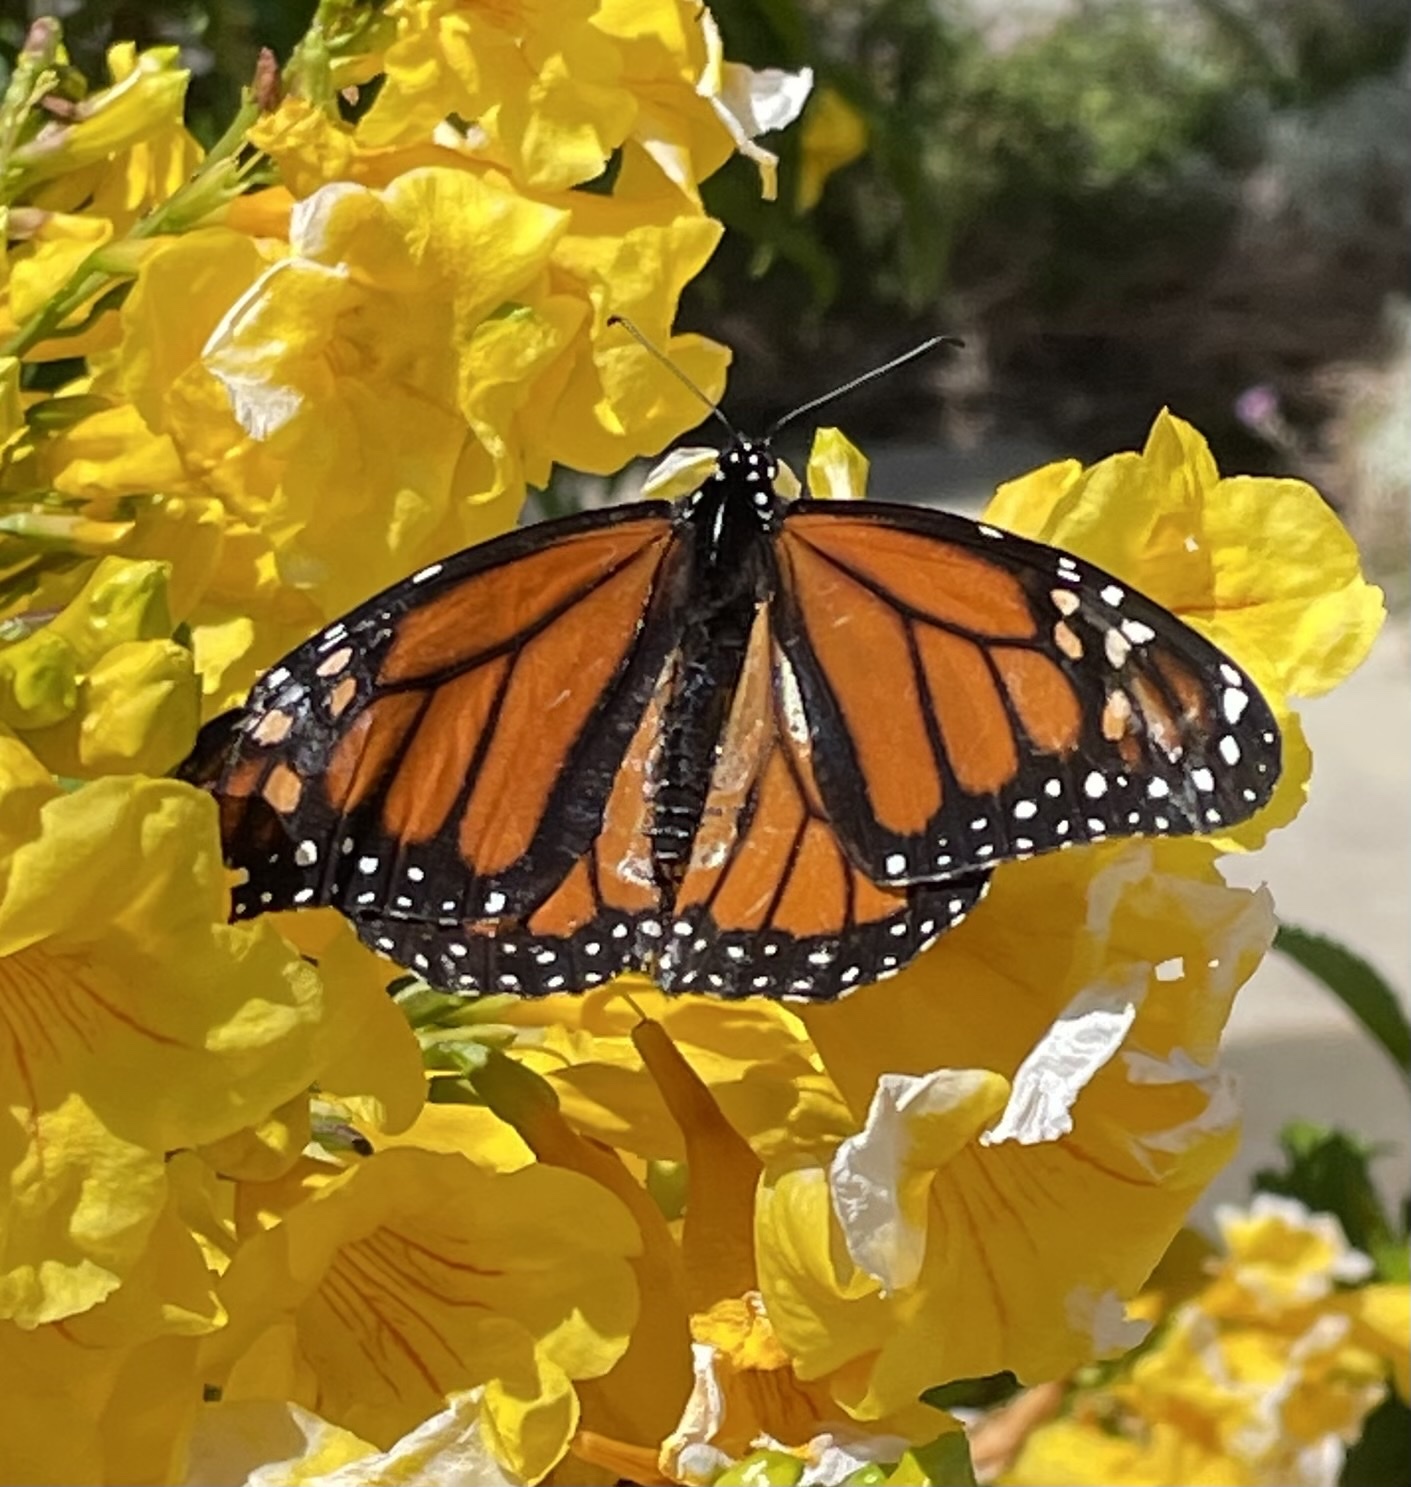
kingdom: Animalia
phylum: Arthropoda
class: Insecta
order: Lepidoptera
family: Nymphalidae
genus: Danaus
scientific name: Danaus plexippus
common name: Monarch
